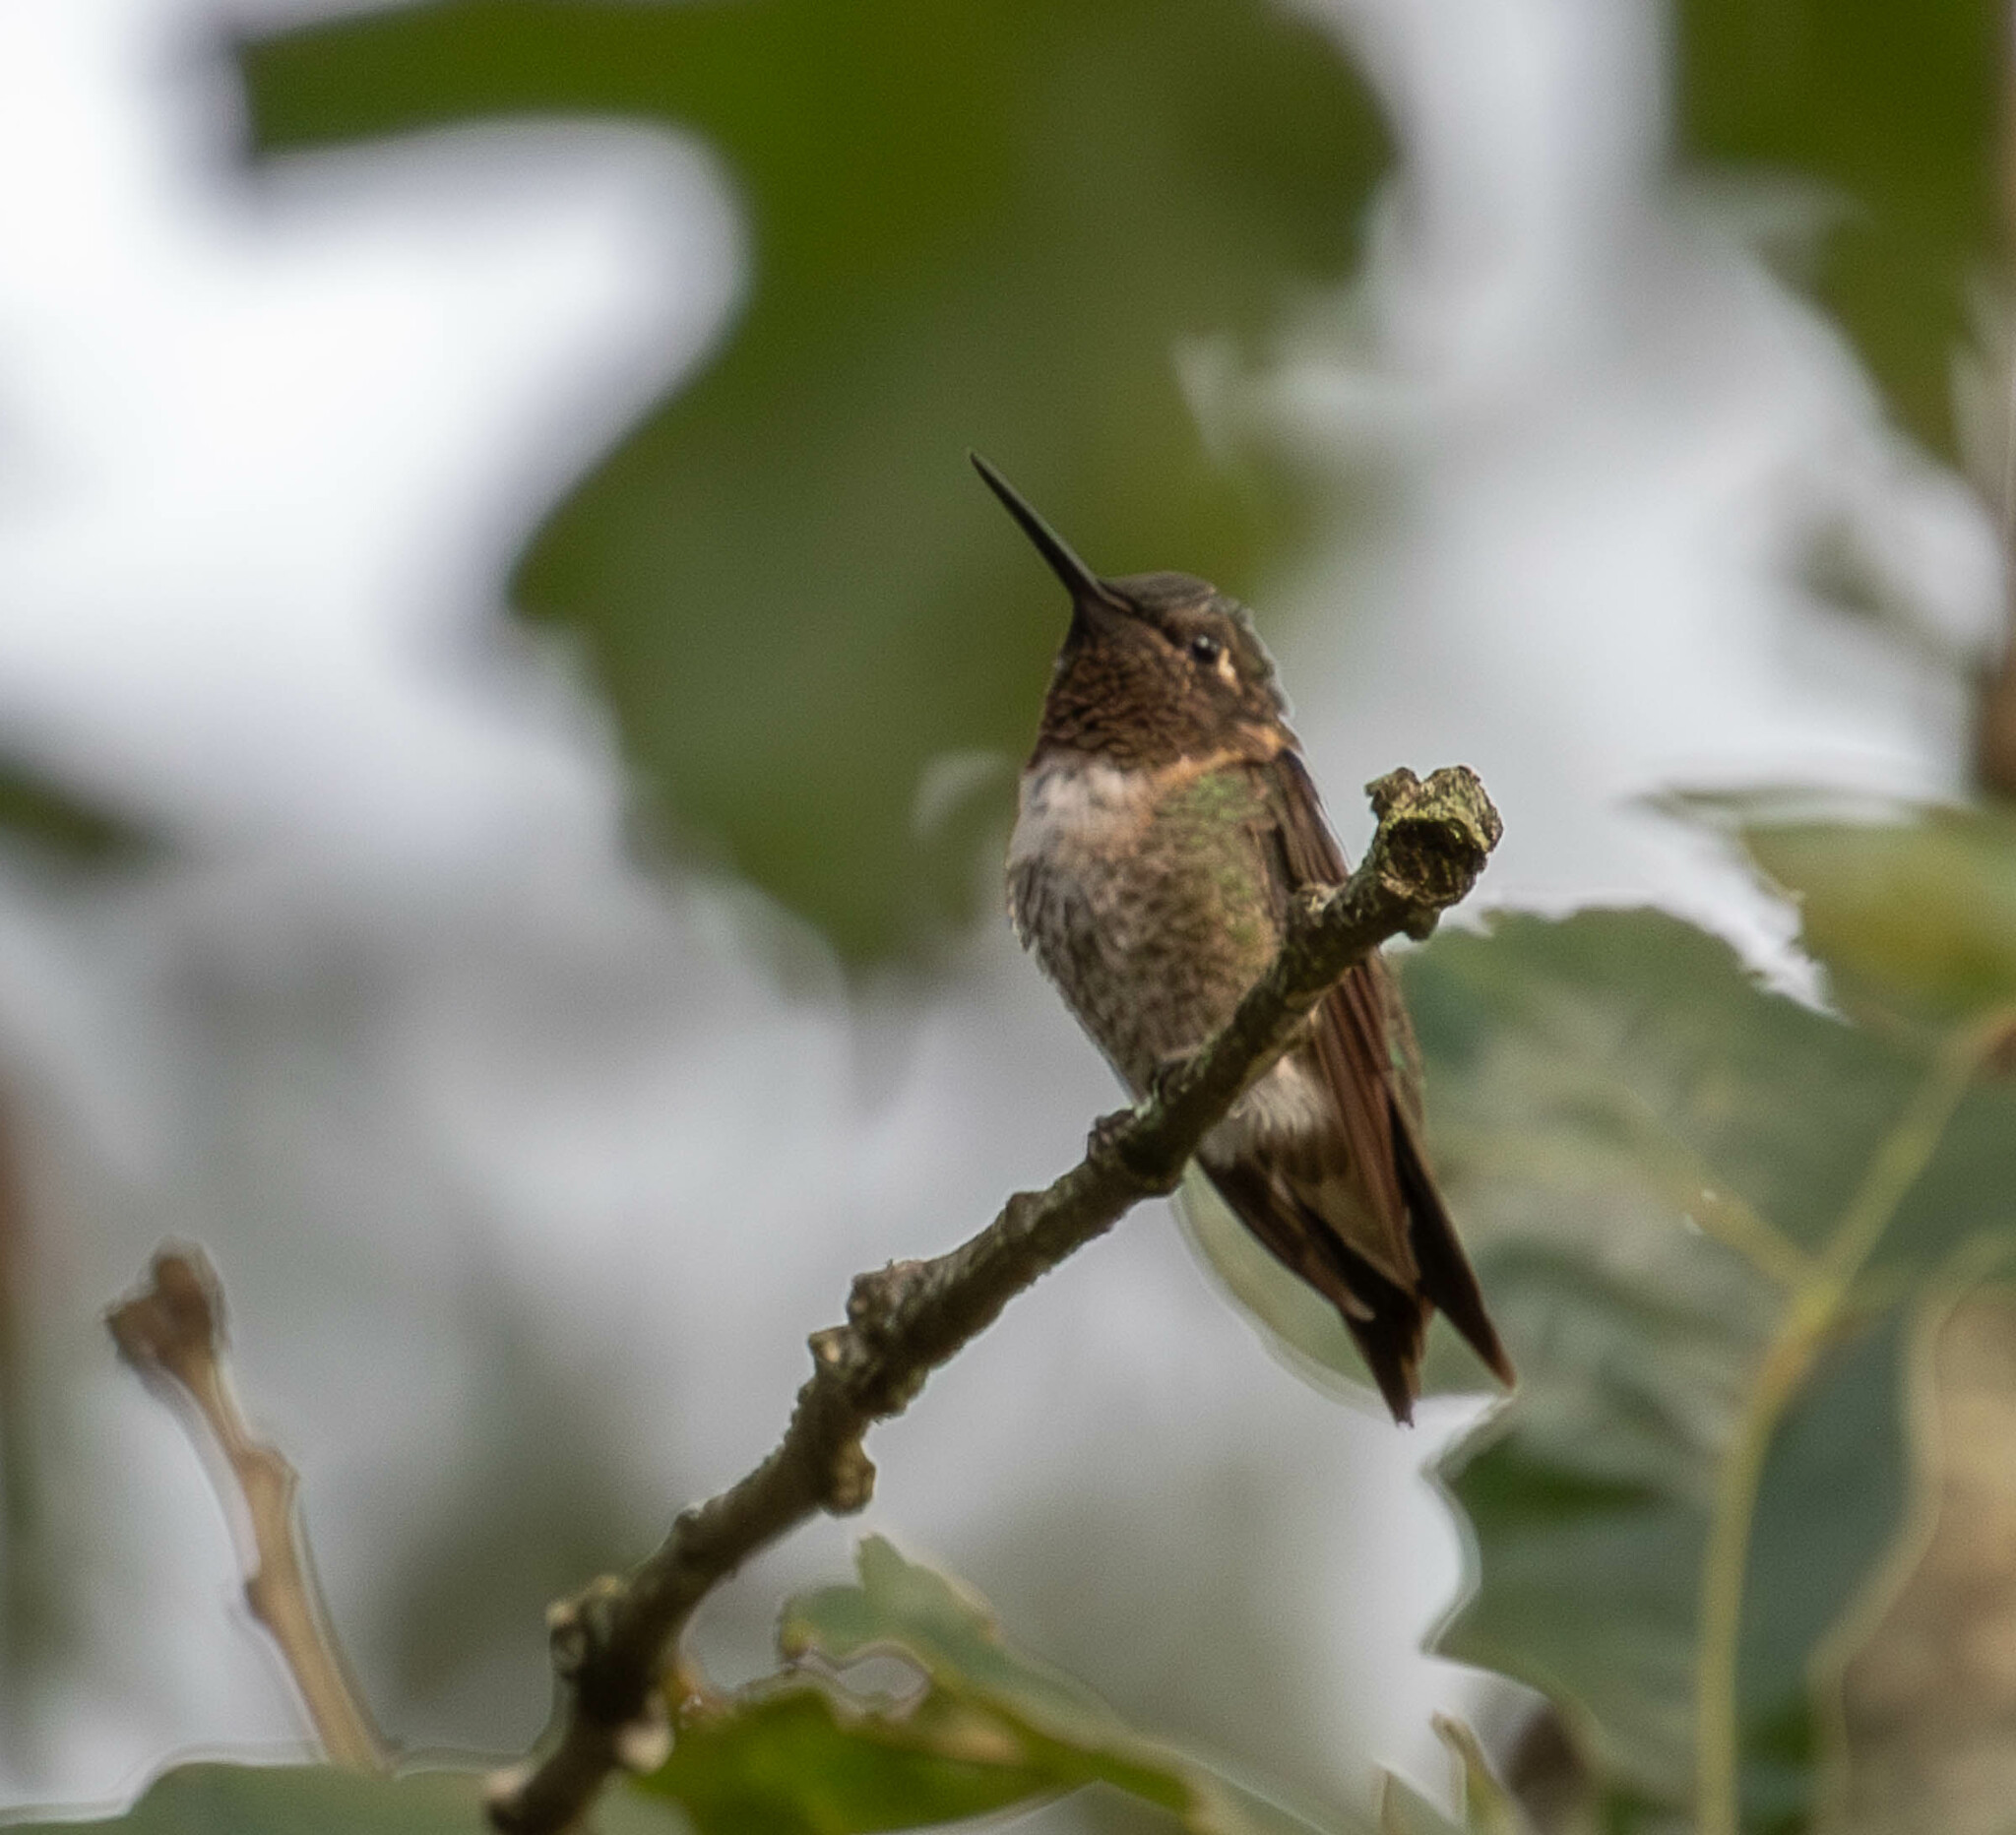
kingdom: Animalia
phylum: Chordata
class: Aves
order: Apodiformes
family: Trochilidae
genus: Archilochus
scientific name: Archilochus colubris
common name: Ruby-throated hummingbird
